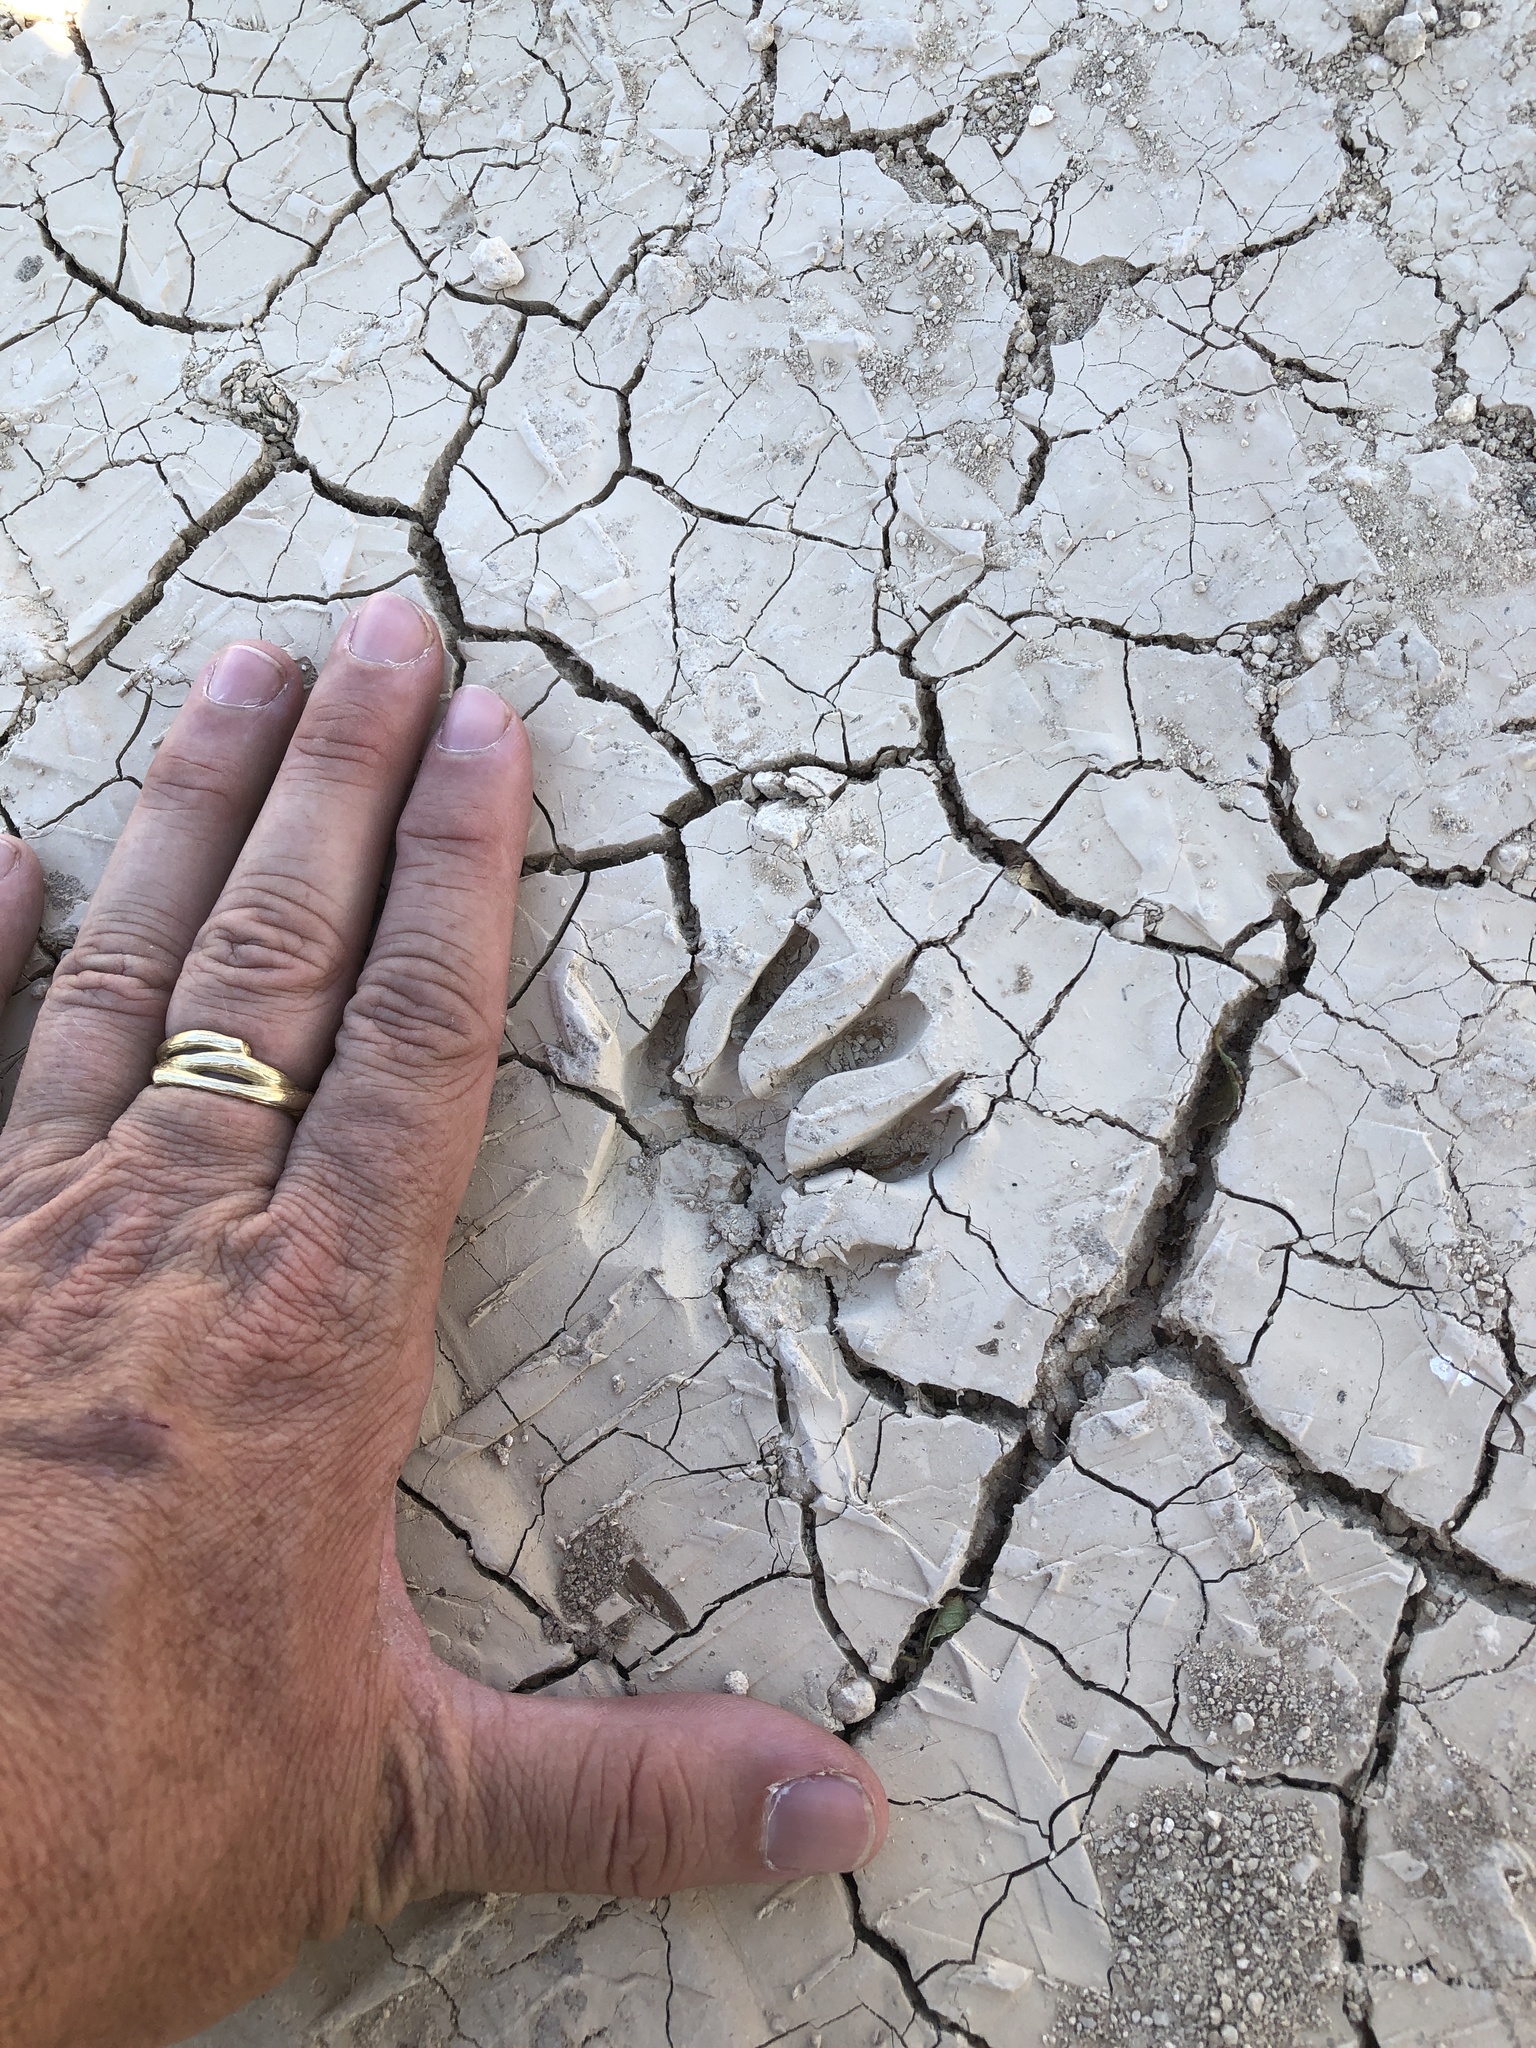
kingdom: Animalia
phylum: Chordata
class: Mammalia
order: Carnivora
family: Procyonidae
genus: Procyon
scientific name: Procyon lotor
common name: Raccoon
